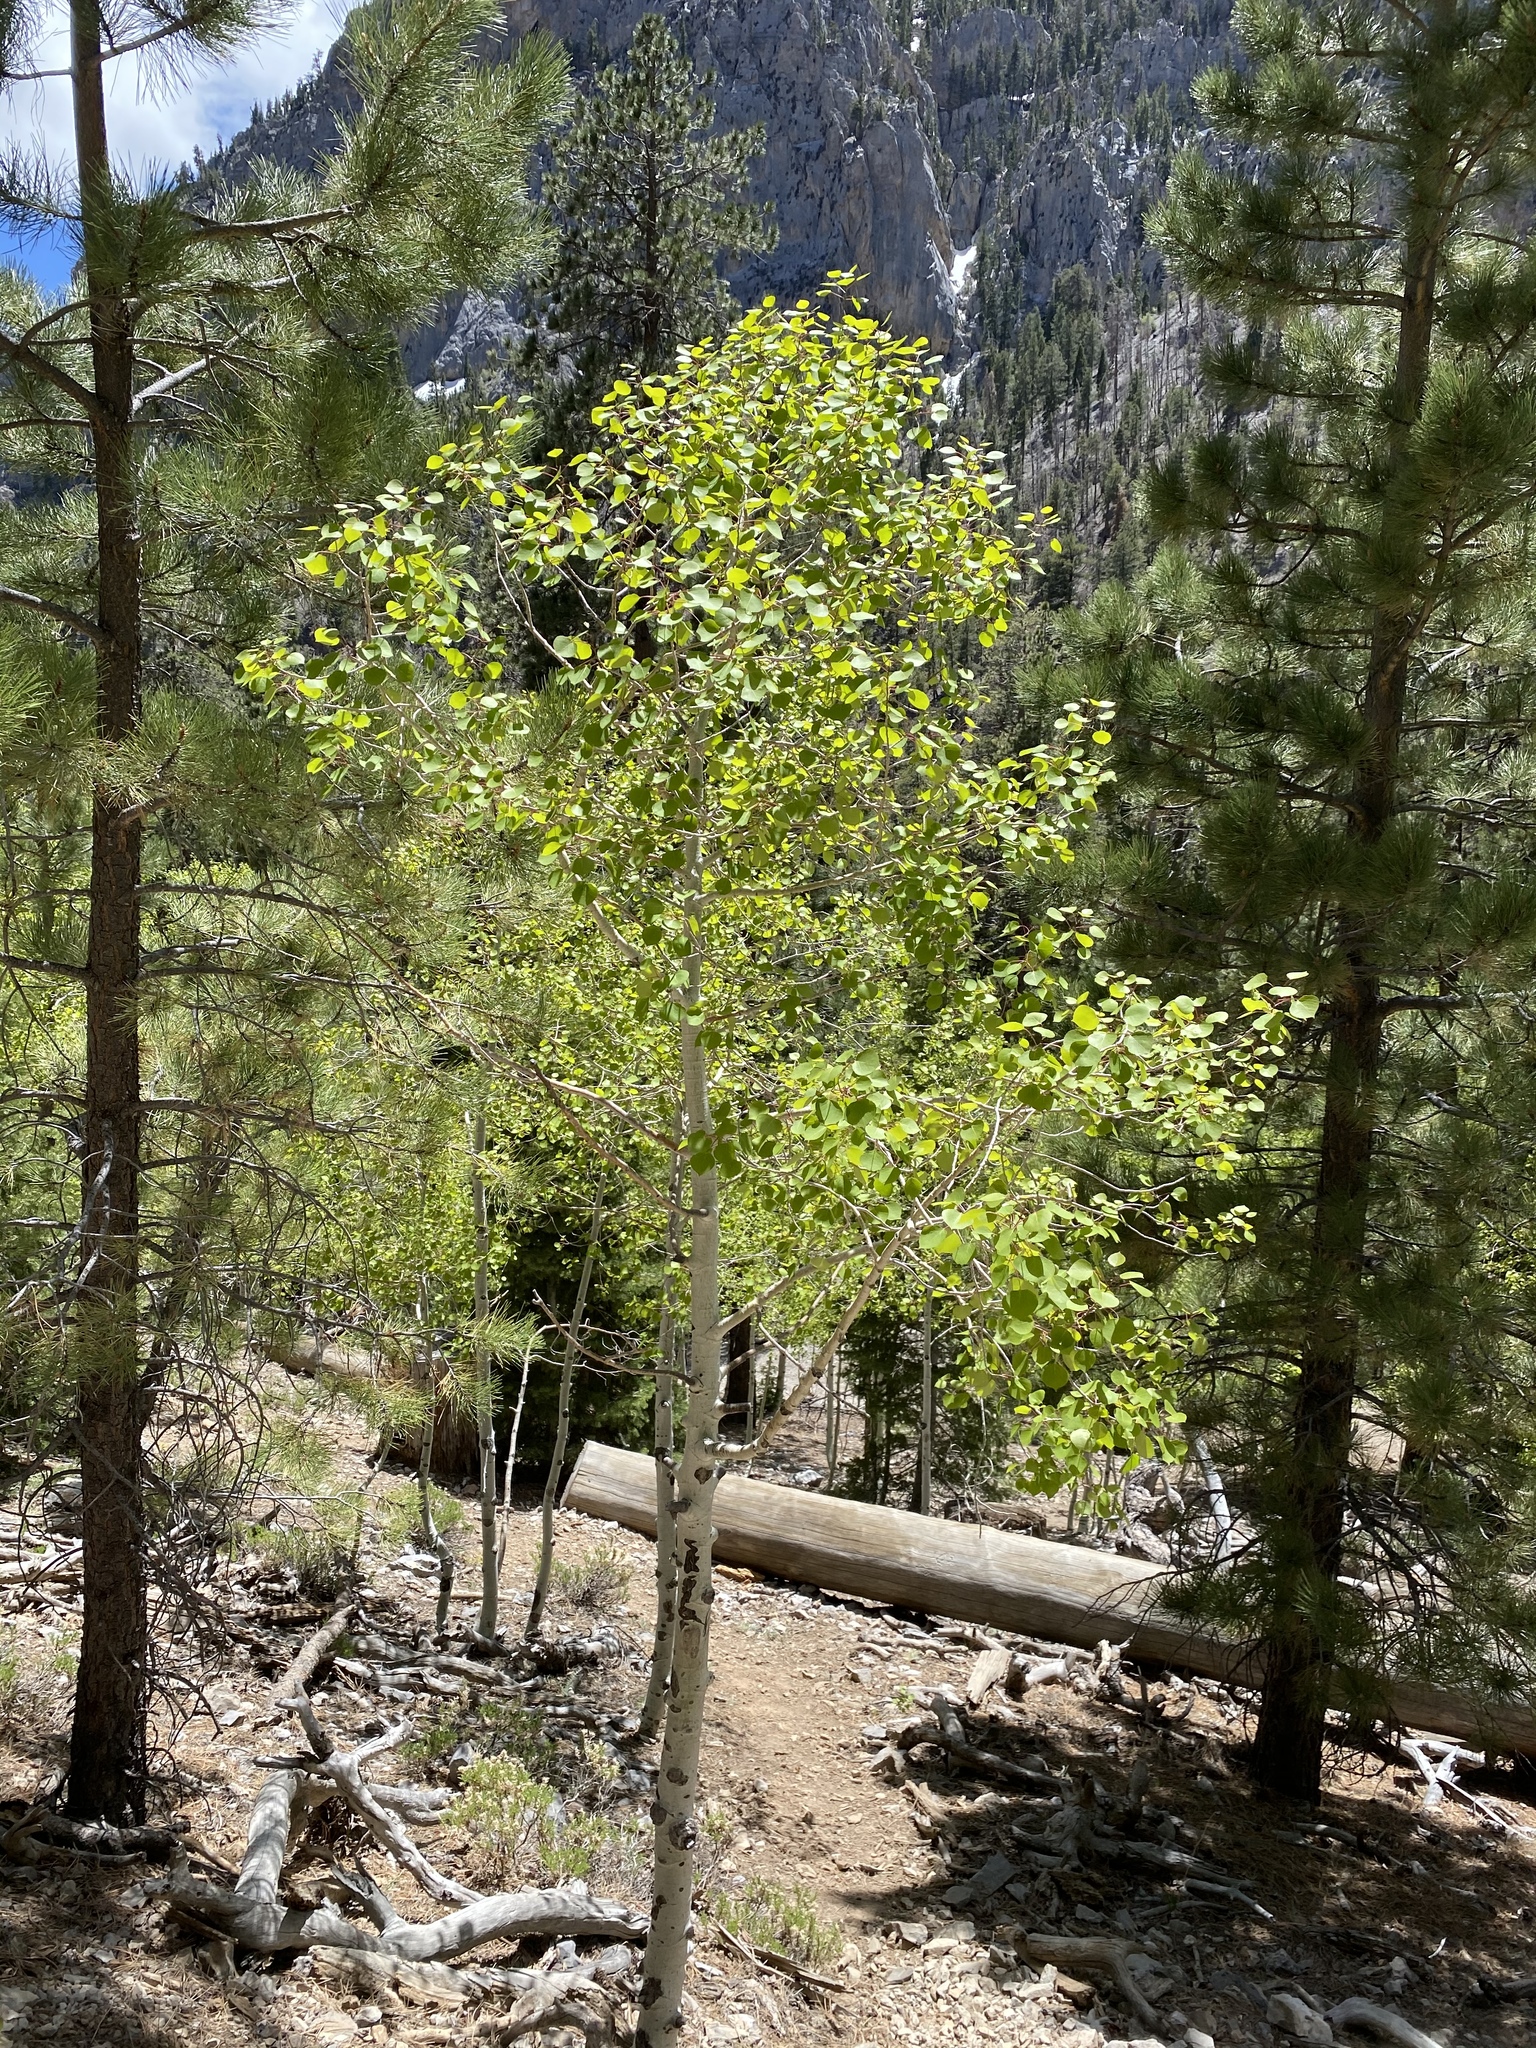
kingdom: Plantae
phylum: Tracheophyta
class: Magnoliopsida
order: Malpighiales
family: Salicaceae
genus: Populus
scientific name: Populus tremuloides
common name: Quaking aspen
